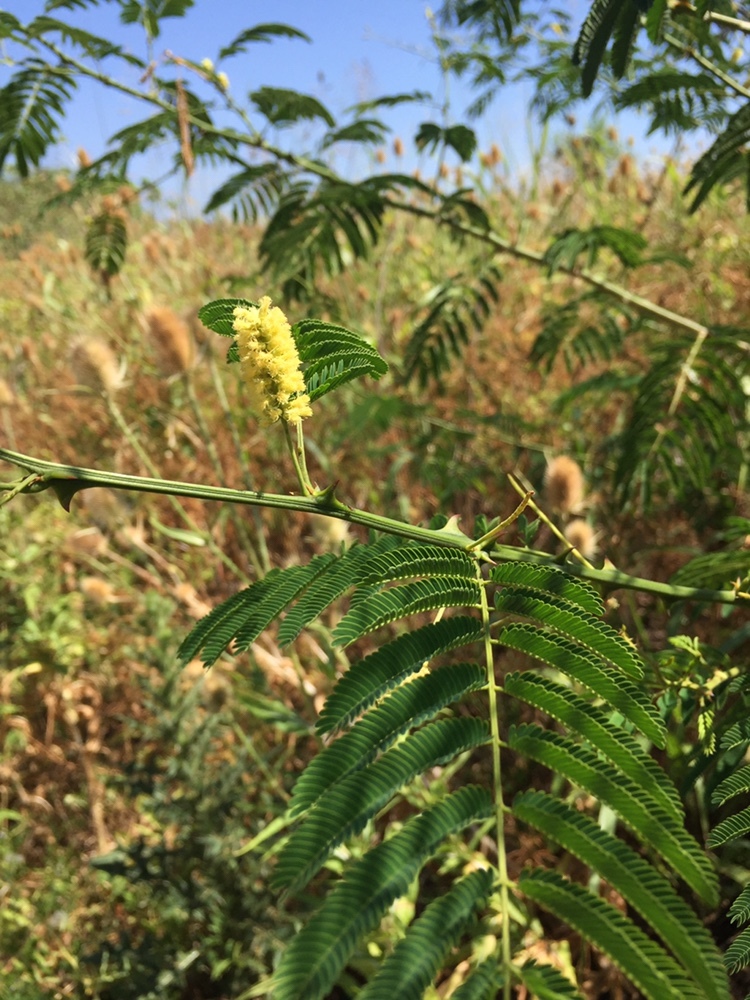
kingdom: Plantae
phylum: Tracheophyta
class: Magnoliopsida
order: Fabales
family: Fabaceae
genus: Senegalia
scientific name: Senegalia bonariensis
